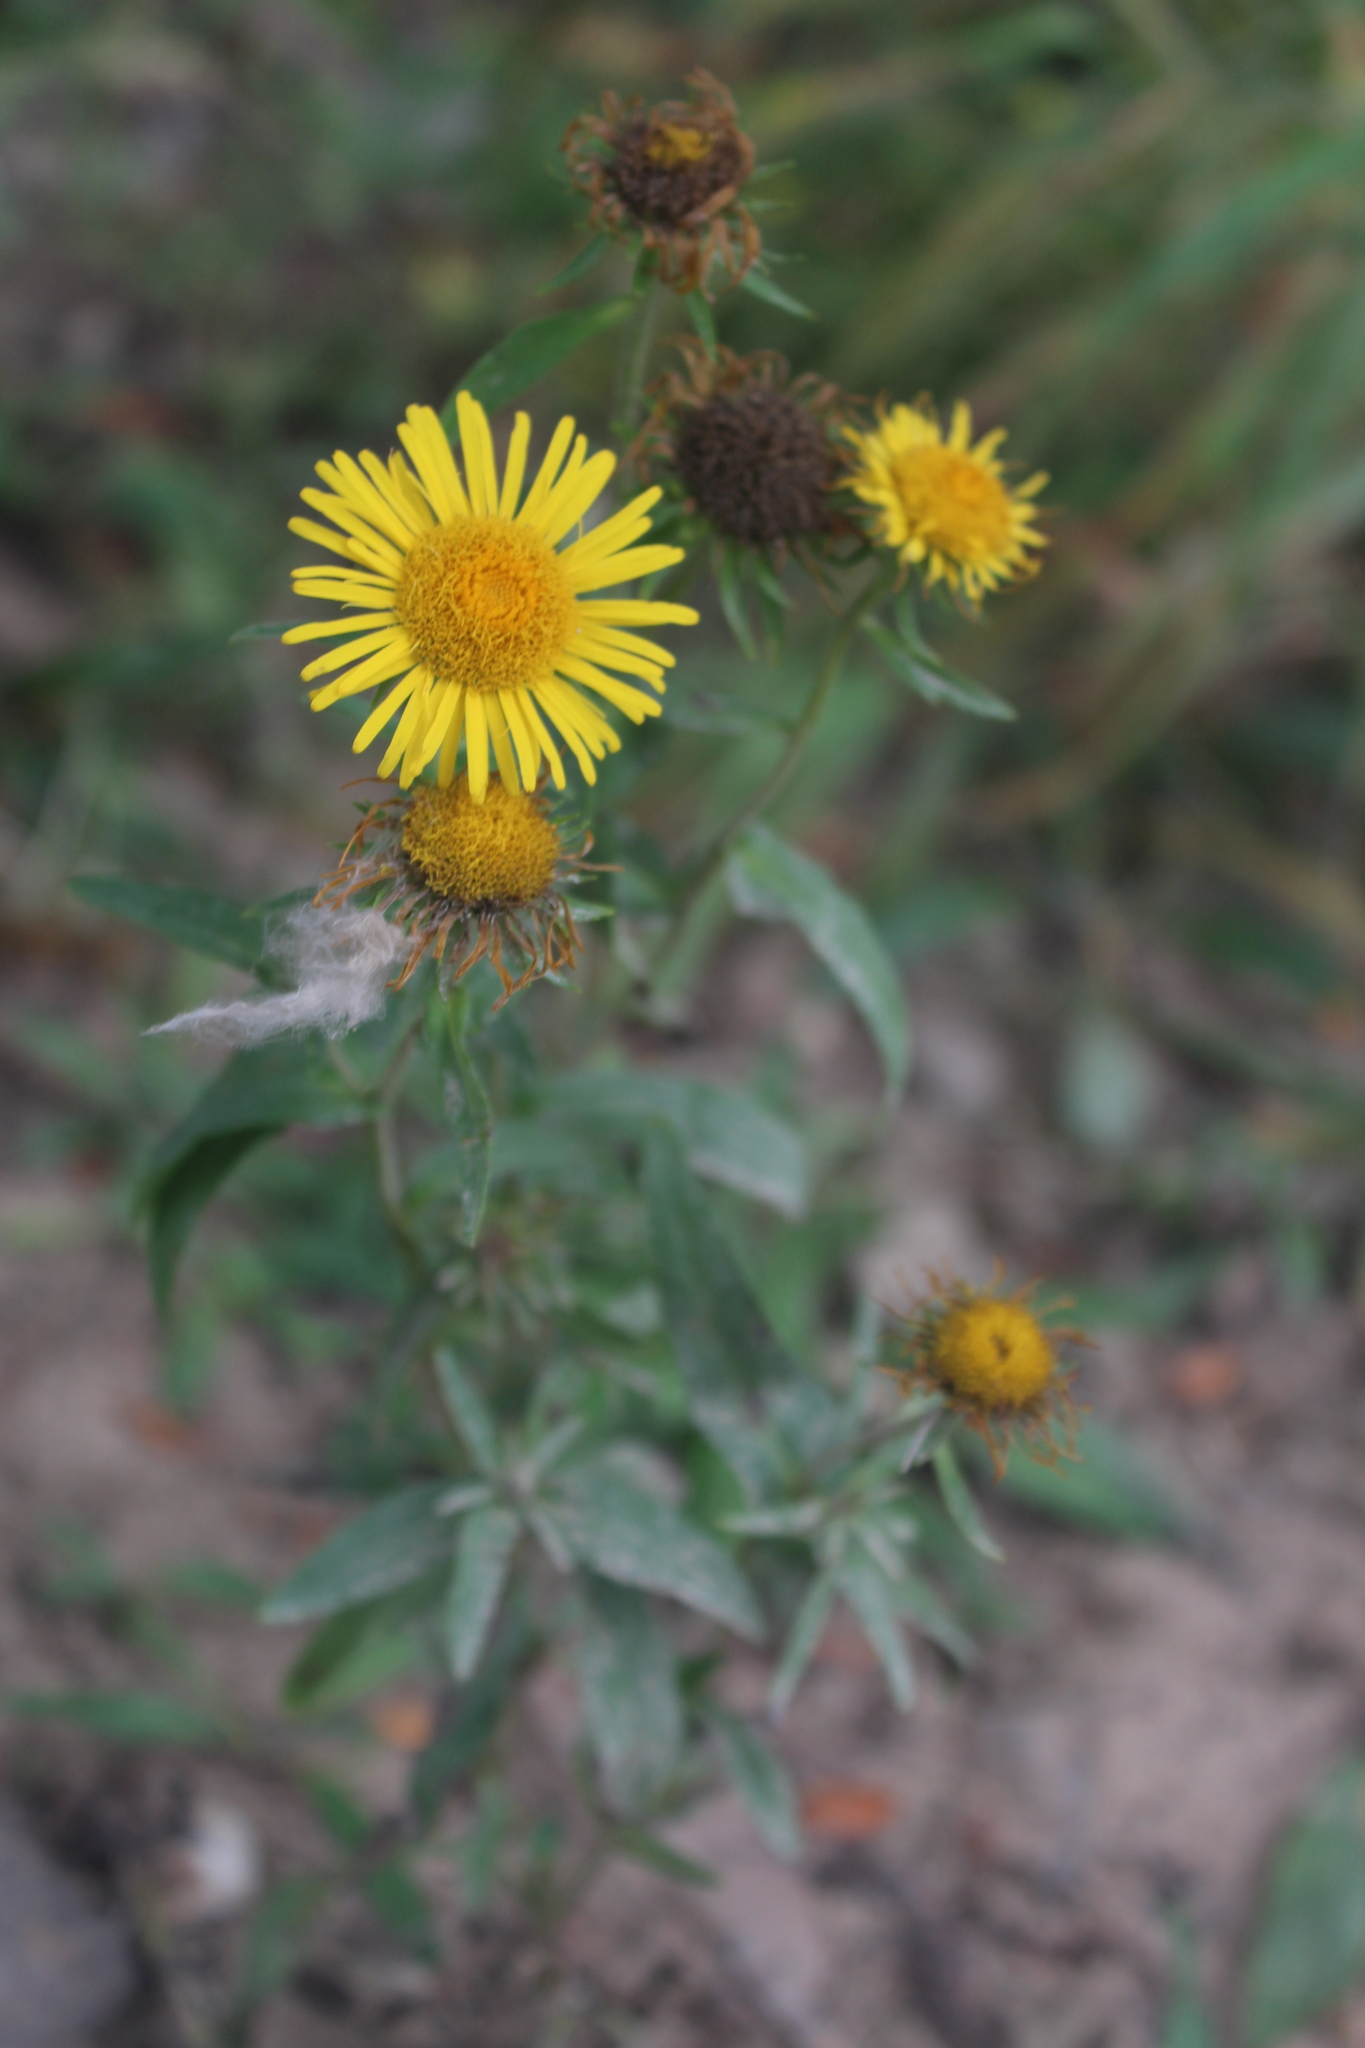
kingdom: Plantae
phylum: Tracheophyta
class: Magnoliopsida
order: Asterales
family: Asteraceae
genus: Pentanema
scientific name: Pentanema britannicum
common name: British elecampane
